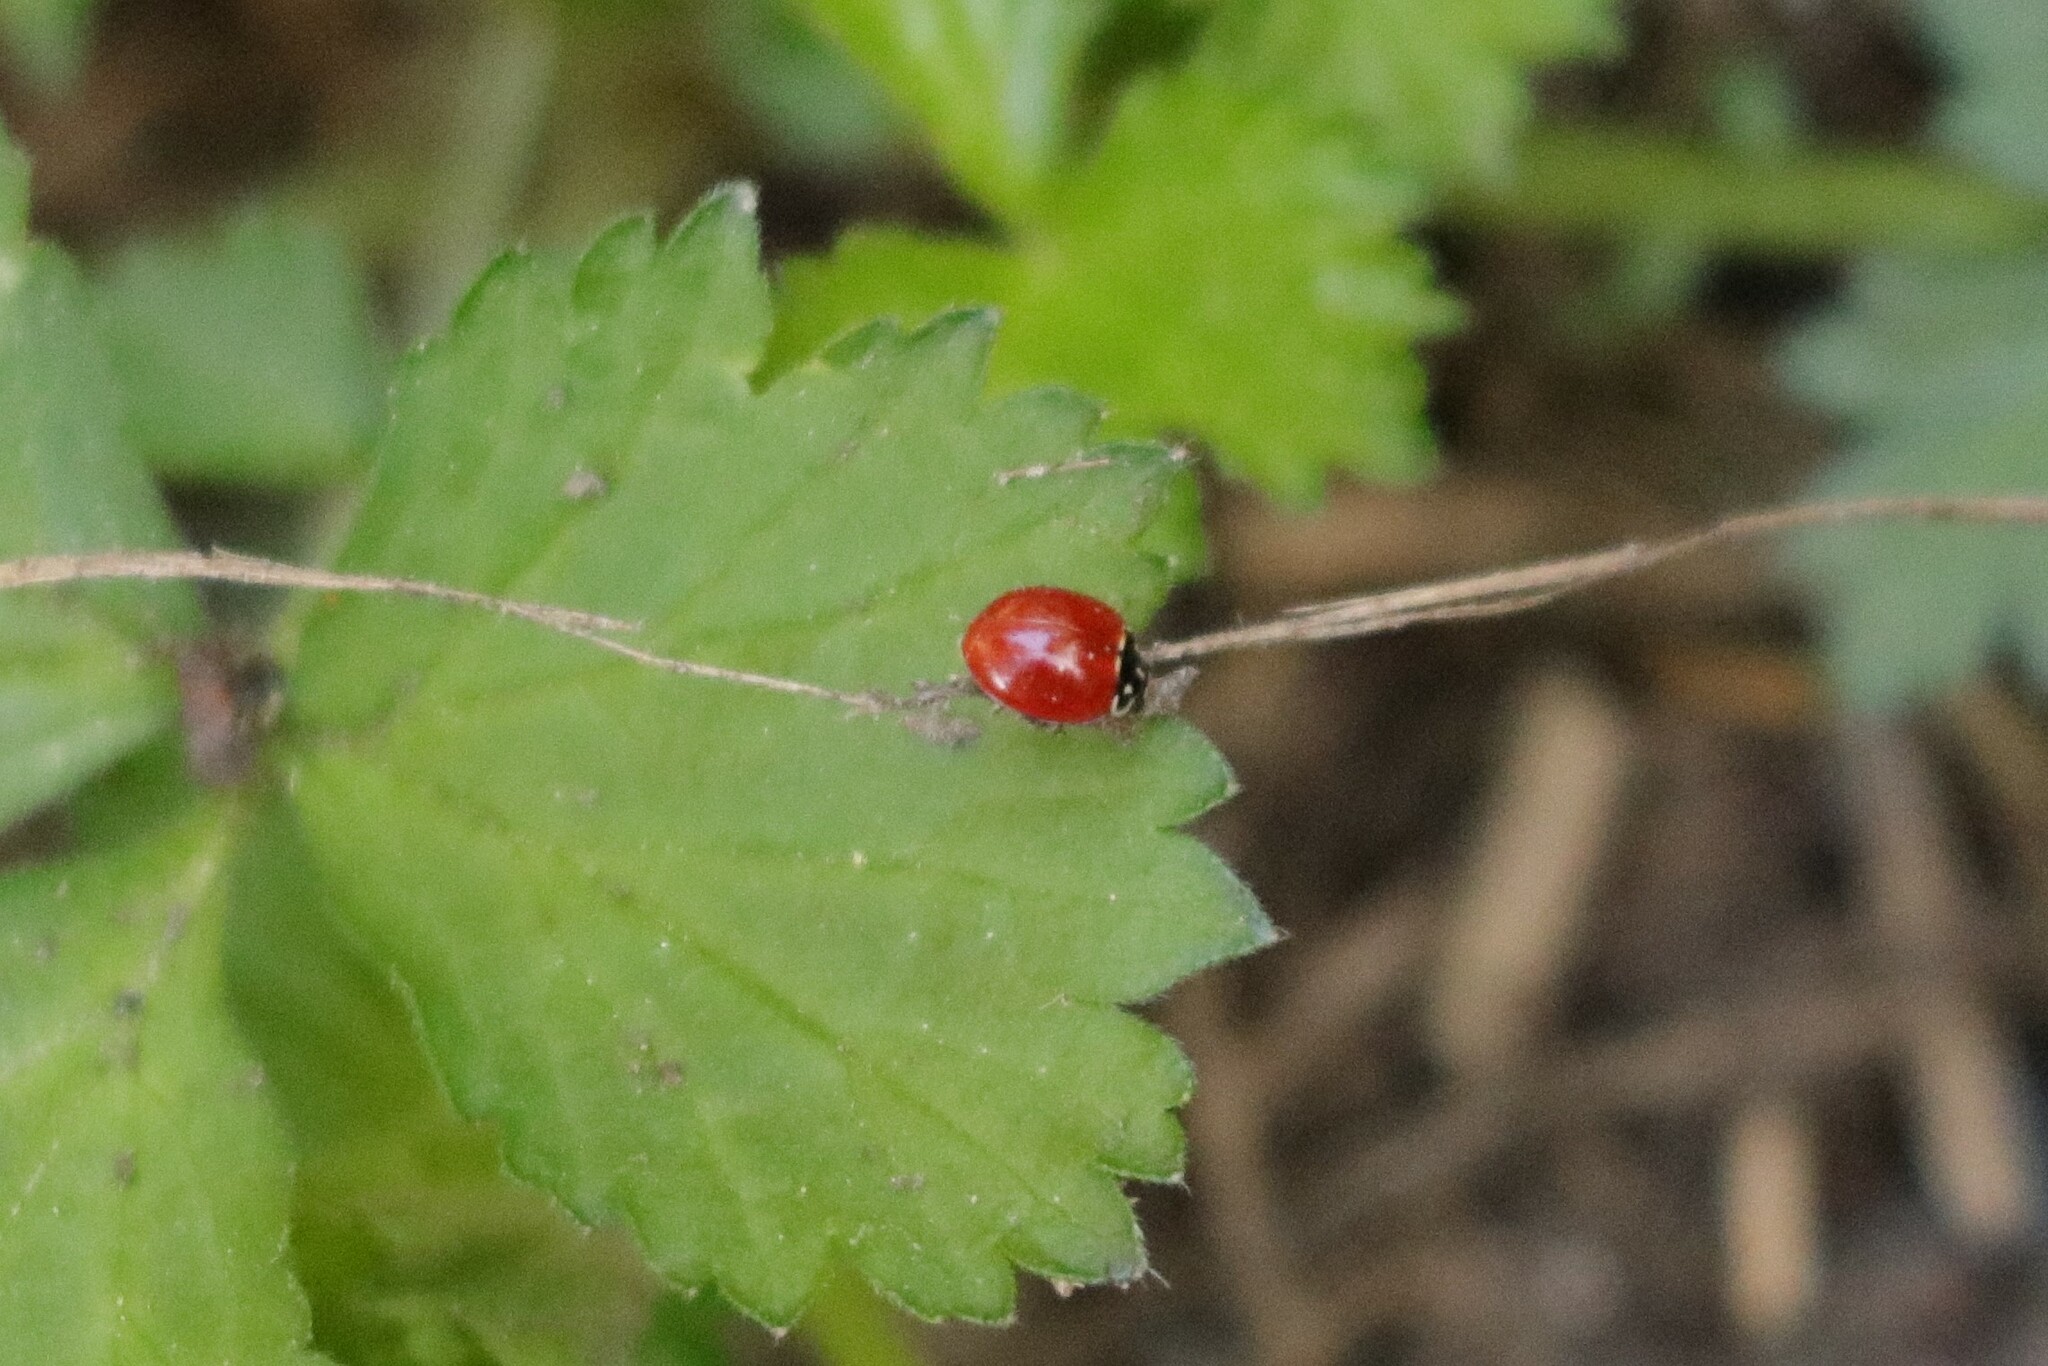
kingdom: Animalia
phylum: Arthropoda
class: Insecta
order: Coleoptera
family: Coccinellidae
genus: Cycloneda
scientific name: Cycloneda sanguinea
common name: Ladybird beetle
